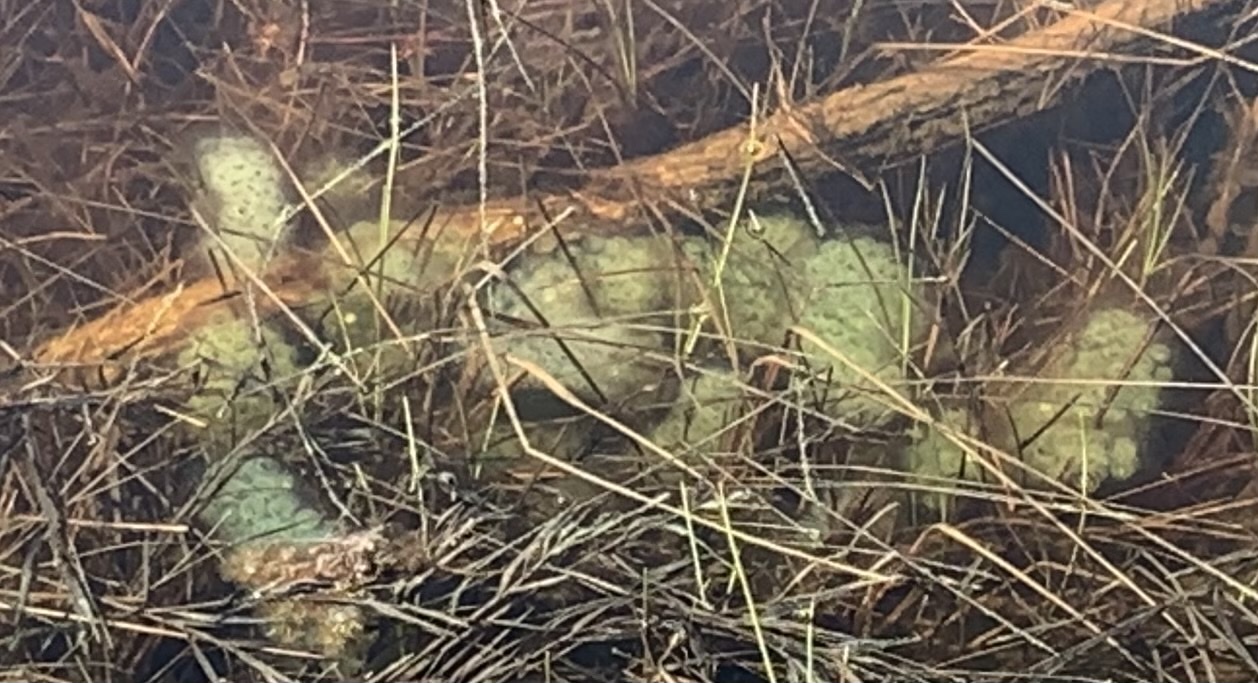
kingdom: Animalia
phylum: Chordata
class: Amphibia
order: Caudata
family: Ambystomatidae
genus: Ambystoma
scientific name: Ambystoma maculatum
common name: Spotted salamander
